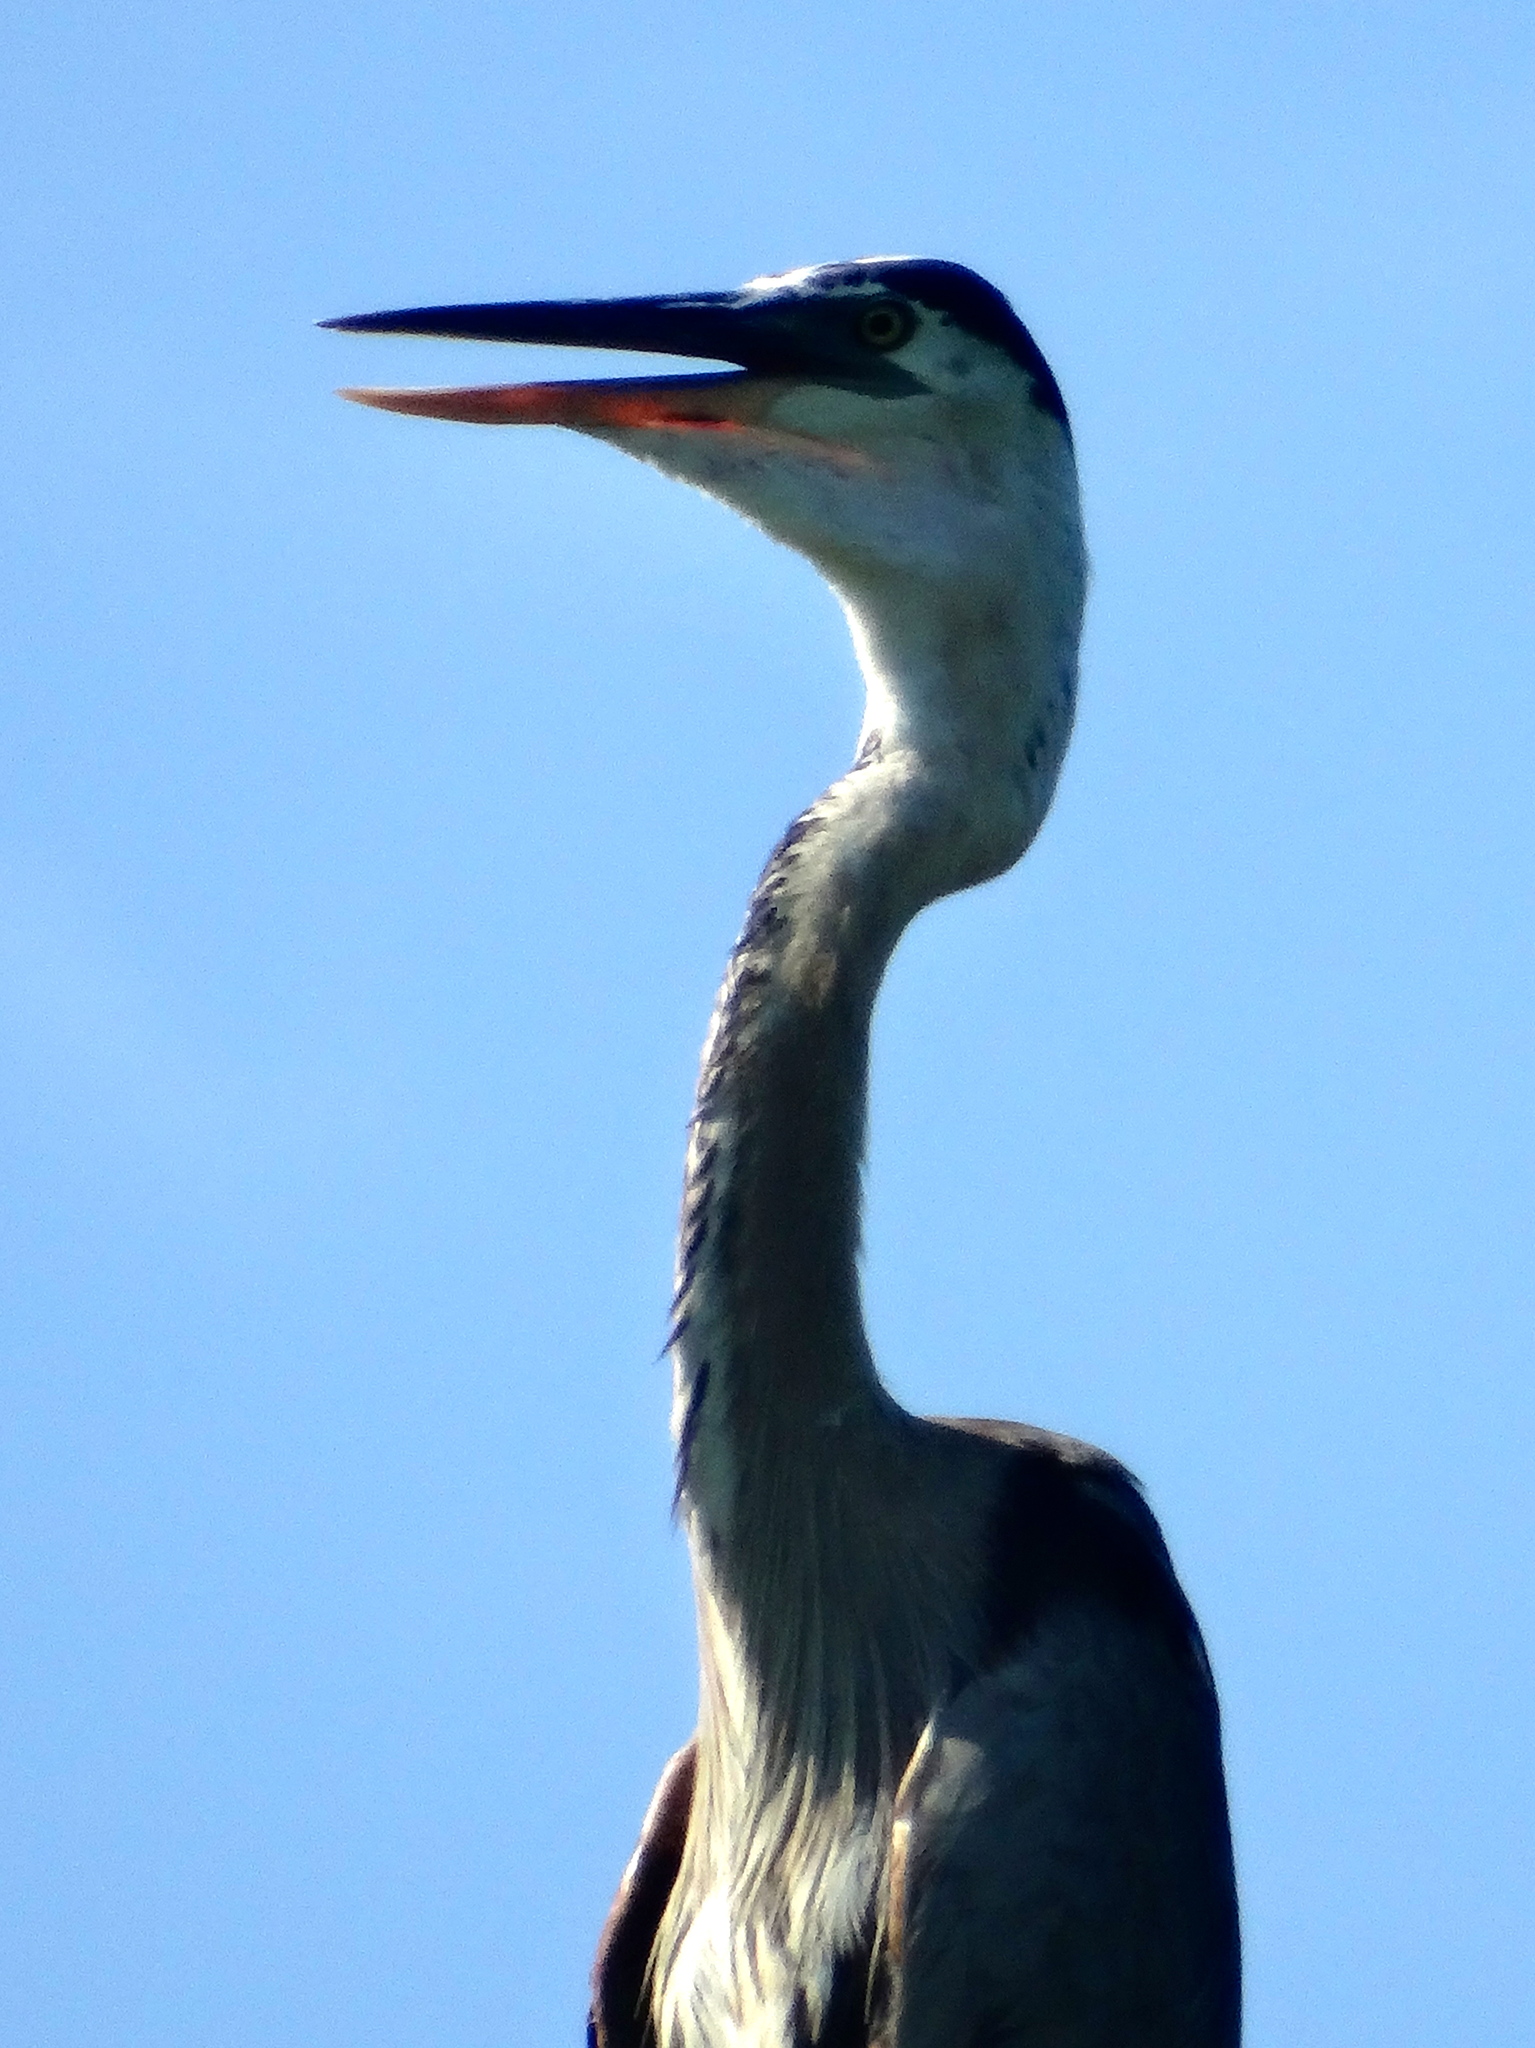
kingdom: Animalia
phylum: Chordata
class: Aves
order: Pelecaniformes
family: Ardeidae
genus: Ardea
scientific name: Ardea herodias
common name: Great blue heron
